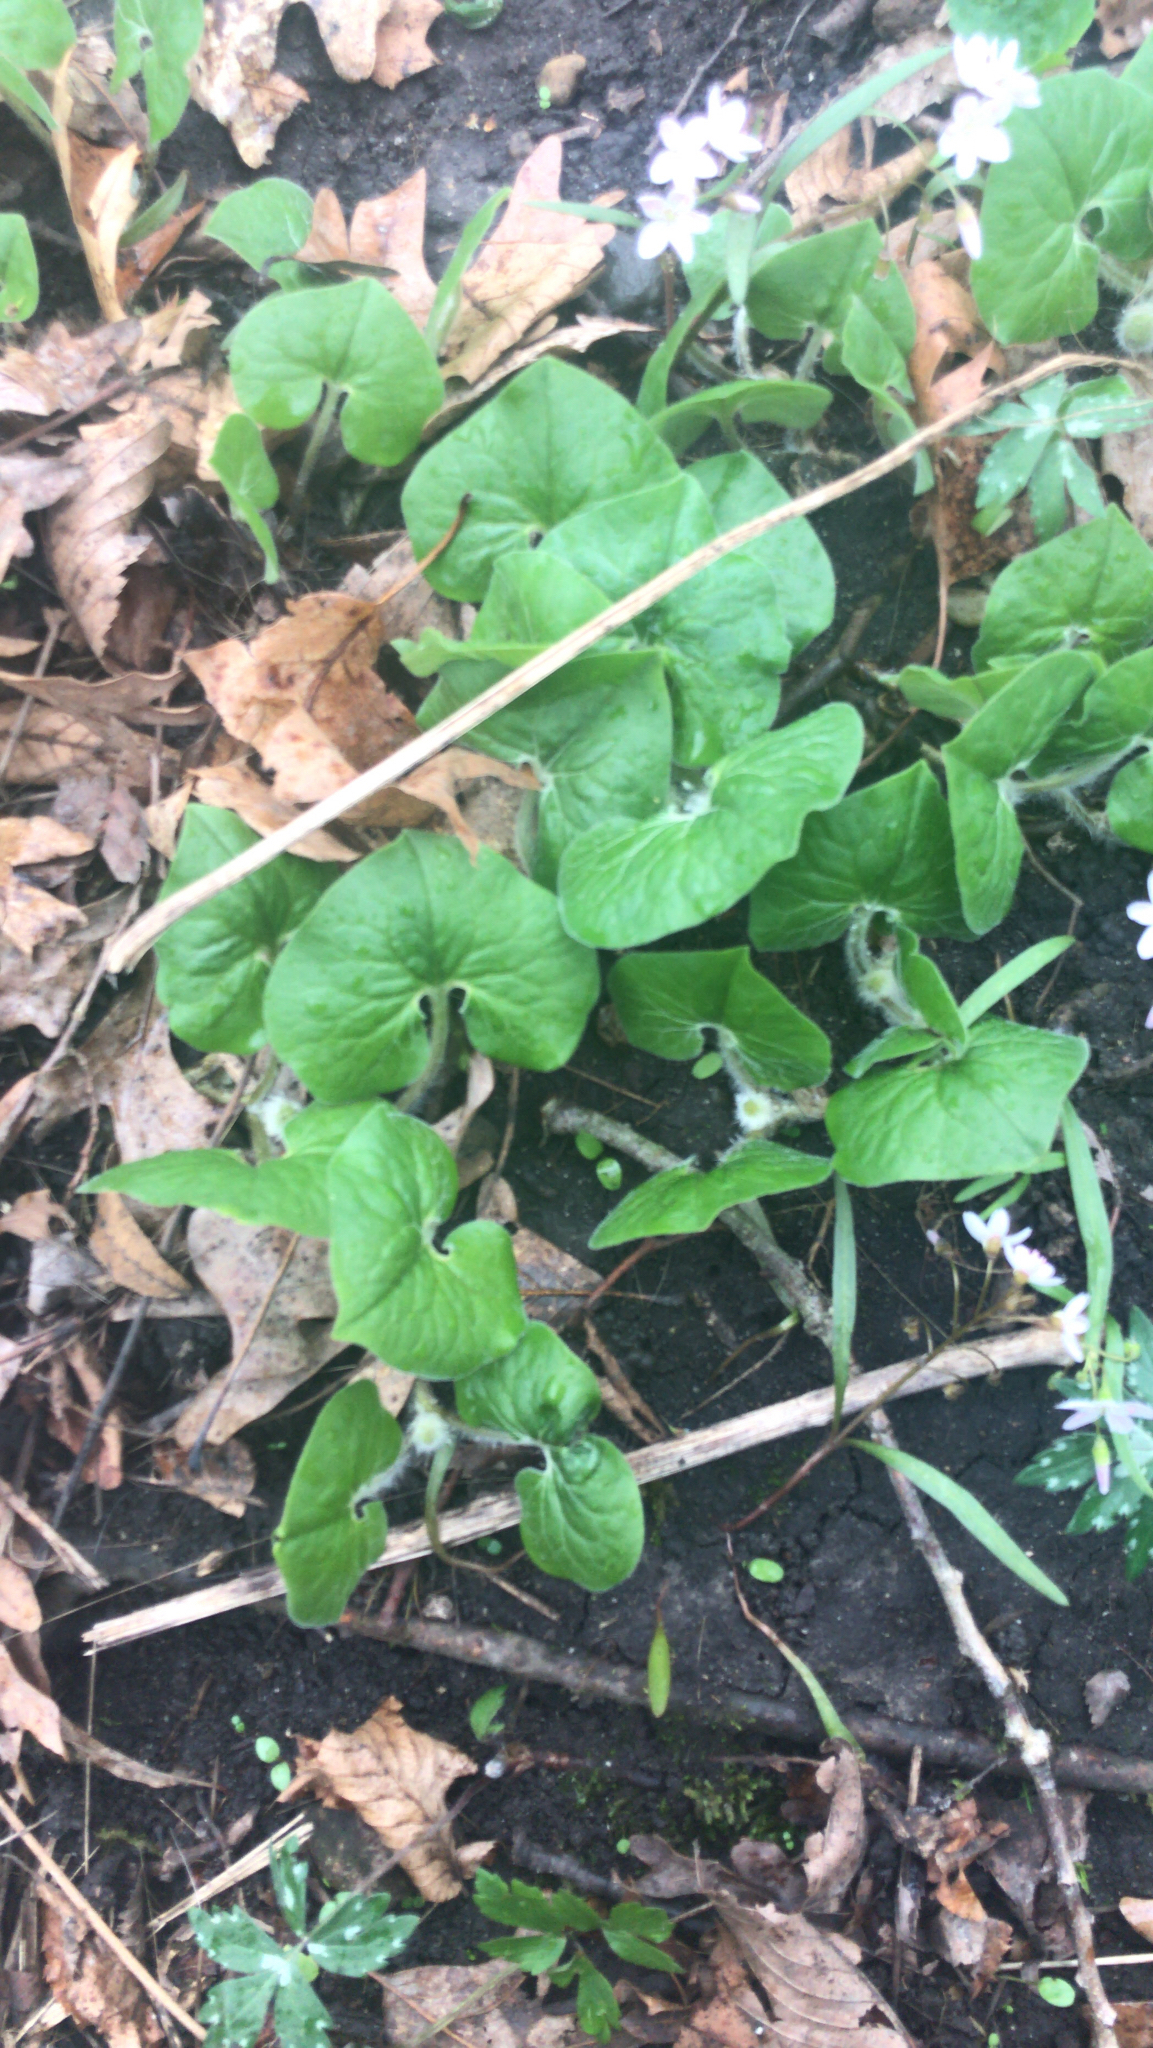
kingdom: Plantae
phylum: Tracheophyta
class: Magnoliopsida
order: Piperales
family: Aristolochiaceae
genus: Asarum
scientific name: Asarum canadense
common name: Wild ginger
